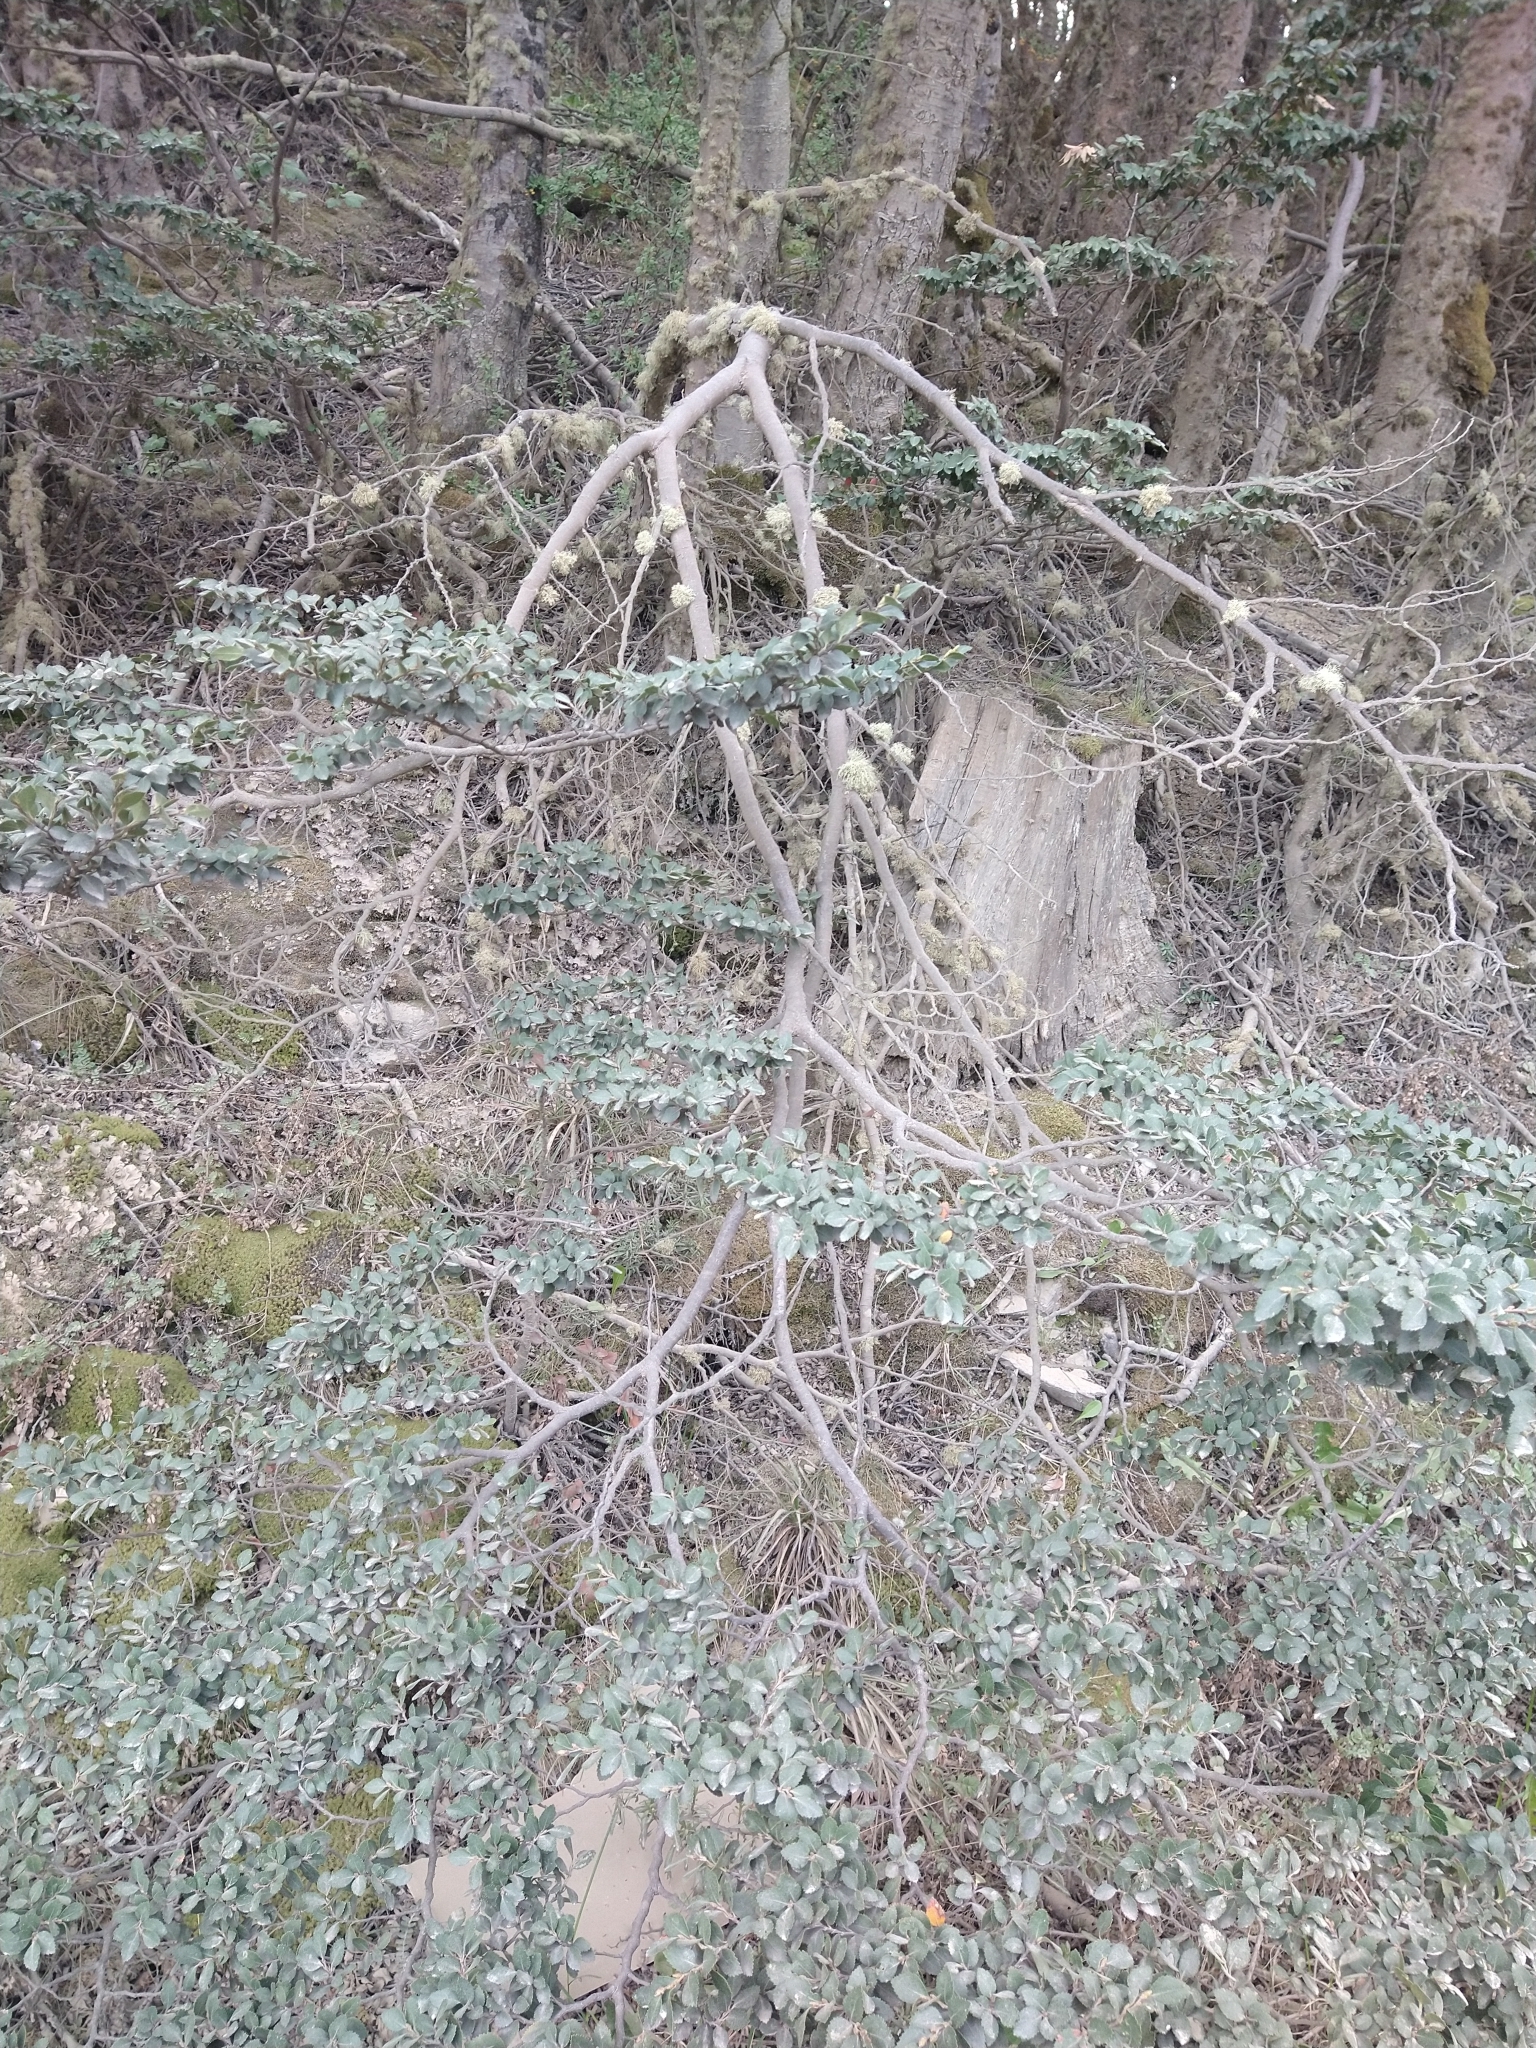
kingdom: Plantae
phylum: Tracheophyta
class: Magnoliopsida
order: Fagales
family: Nothofagaceae
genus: Nothofagus
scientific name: Nothofagus betuloides
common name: Magellan's beech
